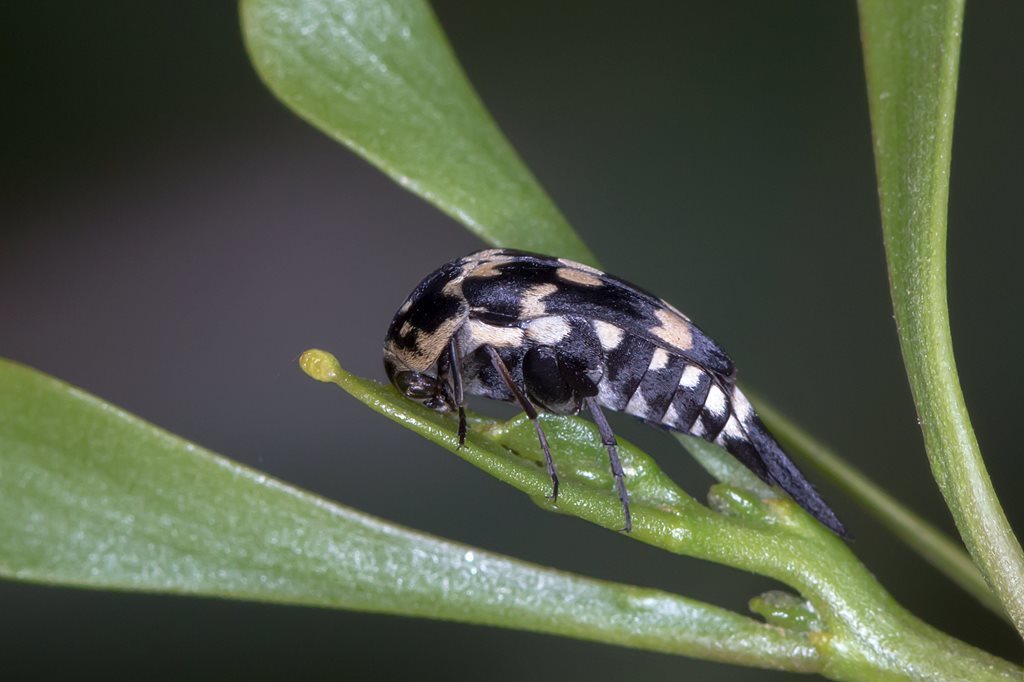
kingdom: Animalia
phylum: Arthropoda
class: Insecta
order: Coleoptera
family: Mordellidae
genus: Hoshihananomia
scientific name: Hoshihananomia
